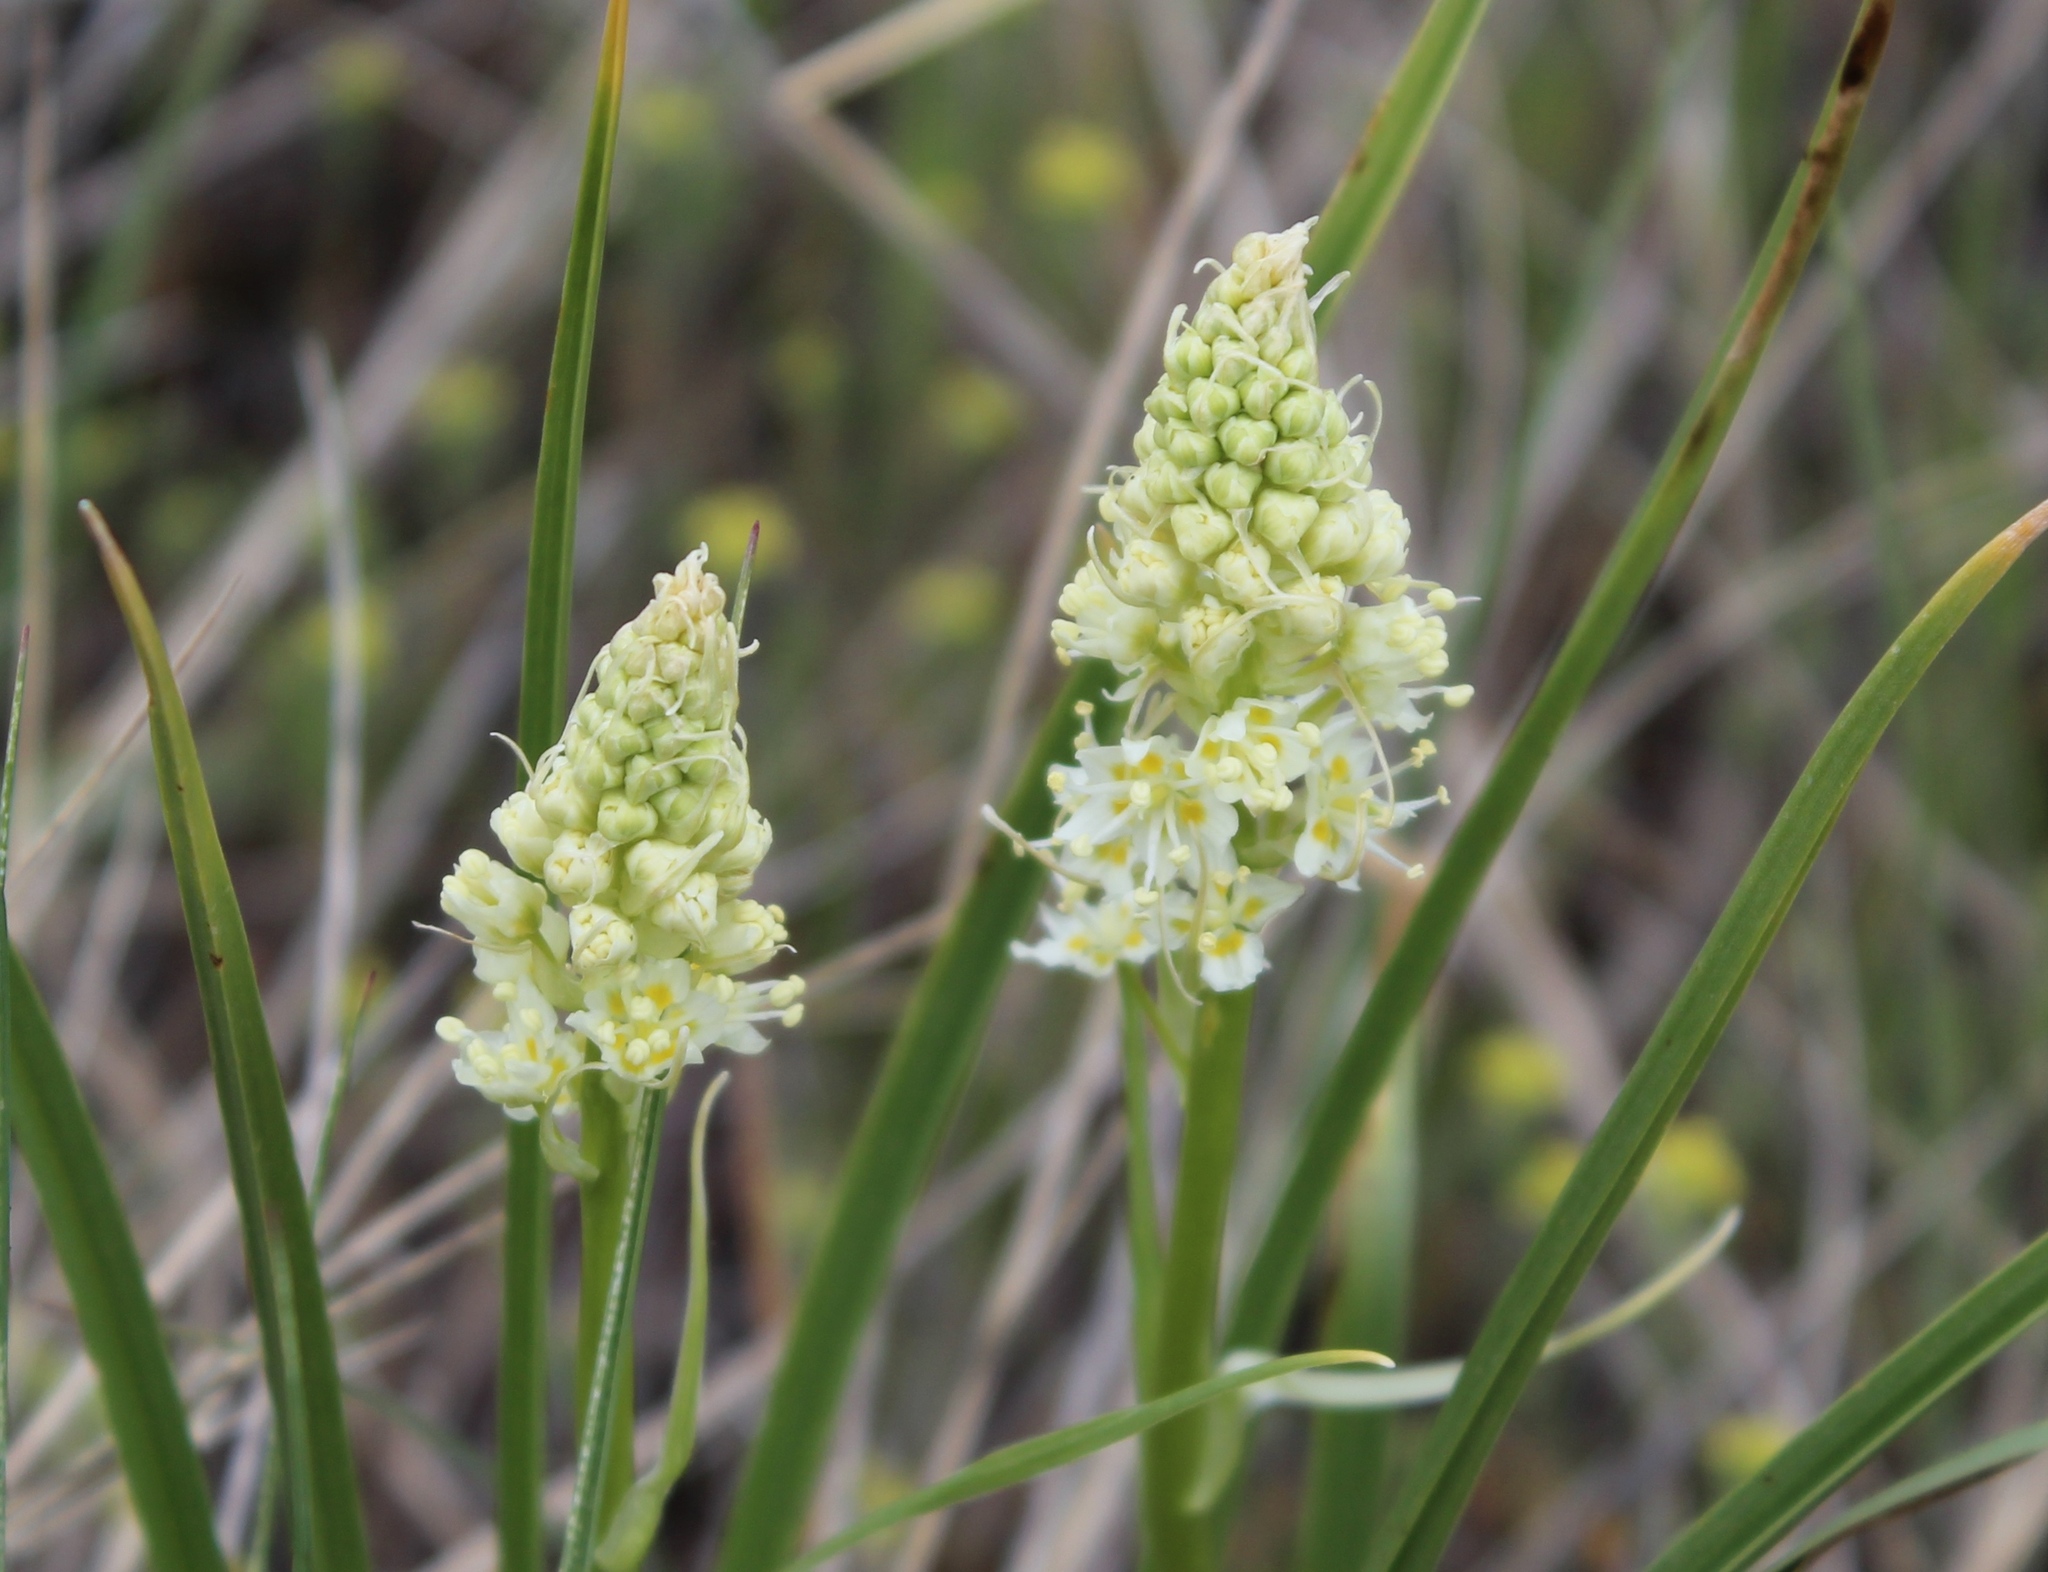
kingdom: Plantae
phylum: Tracheophyta
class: Liliopsida
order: Liliales
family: Melanthiaceae
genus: Toxicoscordion
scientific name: Toxicoscordion venenosum
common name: Meadow death camas
